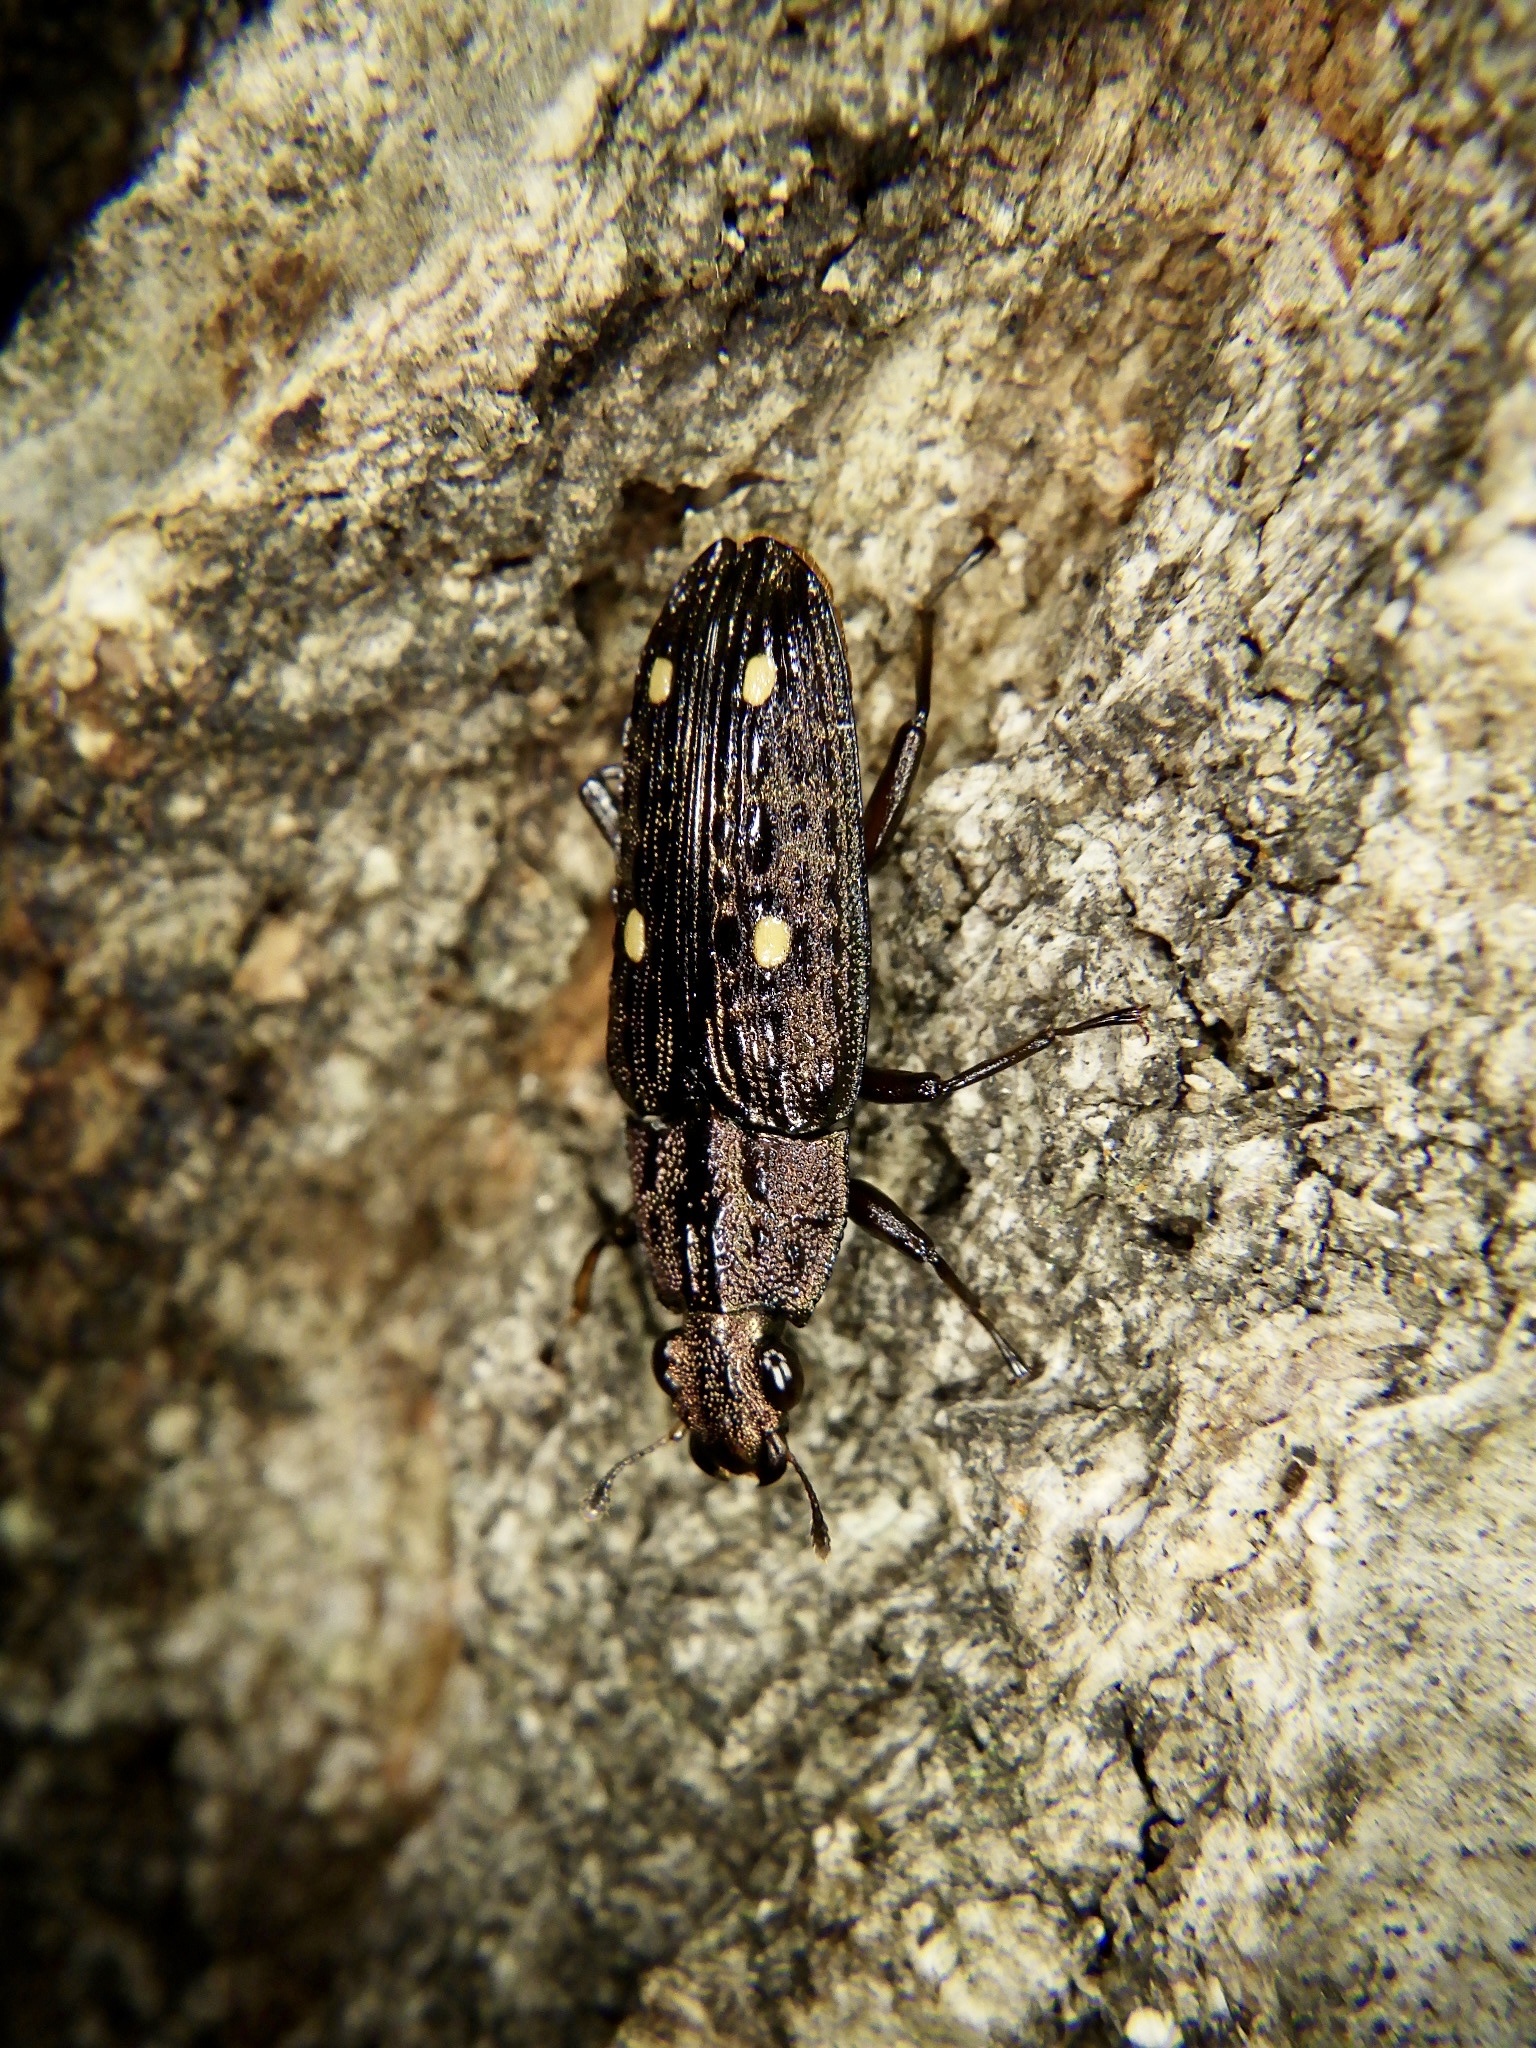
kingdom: Animalia
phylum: Arthropoda
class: Insecta
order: Coleoptera
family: Helotidae
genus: Helota
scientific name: Helota
